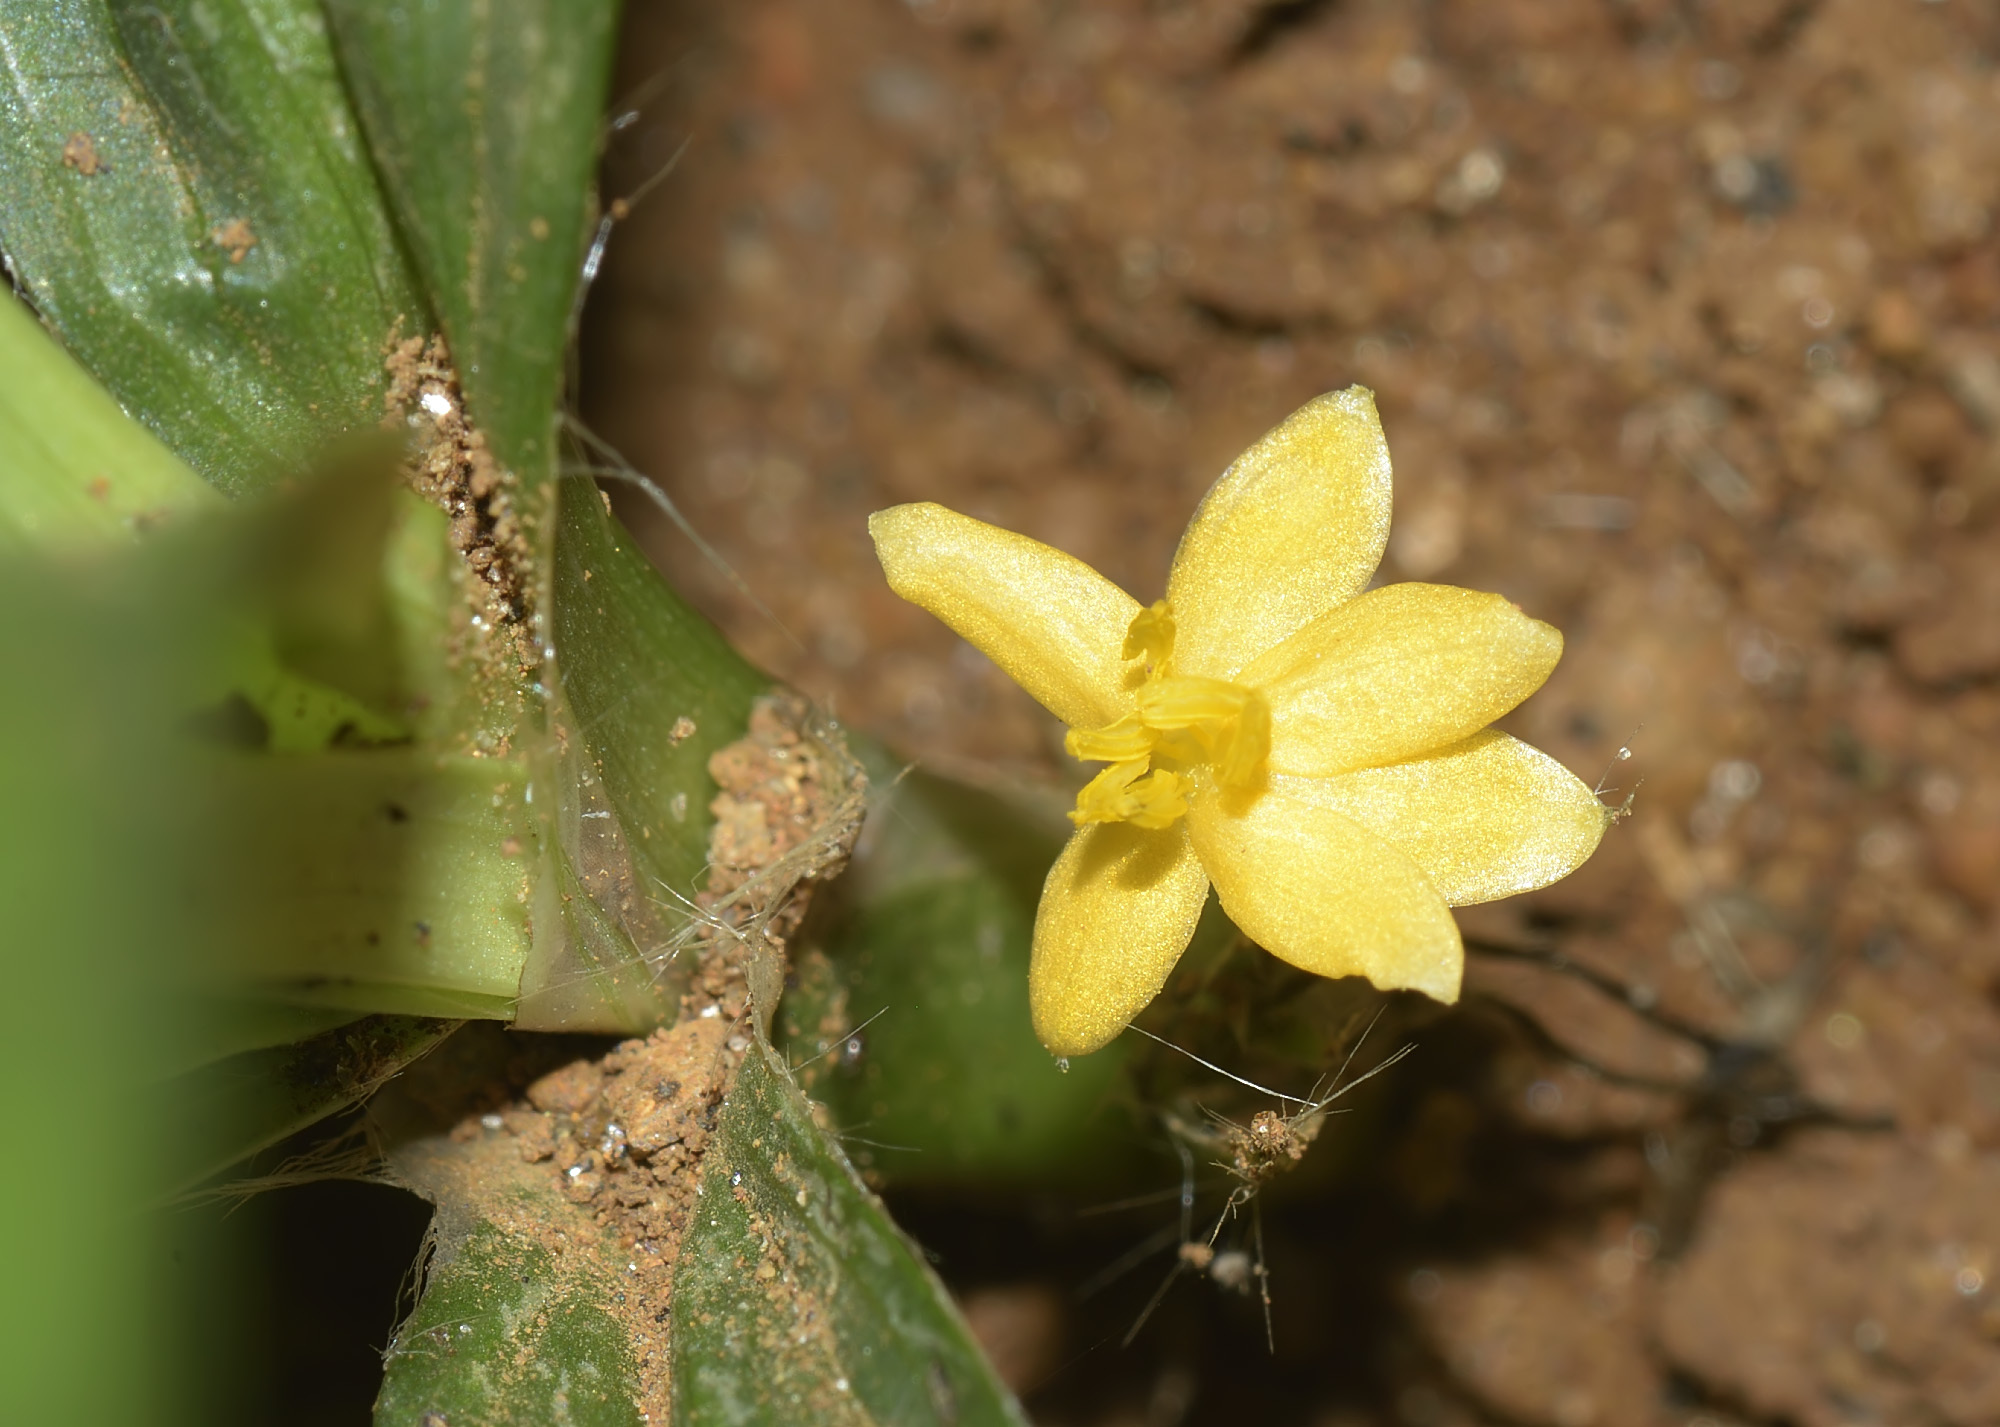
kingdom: Plantae
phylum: Tracheophyta
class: Liliopsida
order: Asparagales
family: Hypoxidaceae
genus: Curculigo
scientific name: Curculigo orchioides
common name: Golden eye-grass
